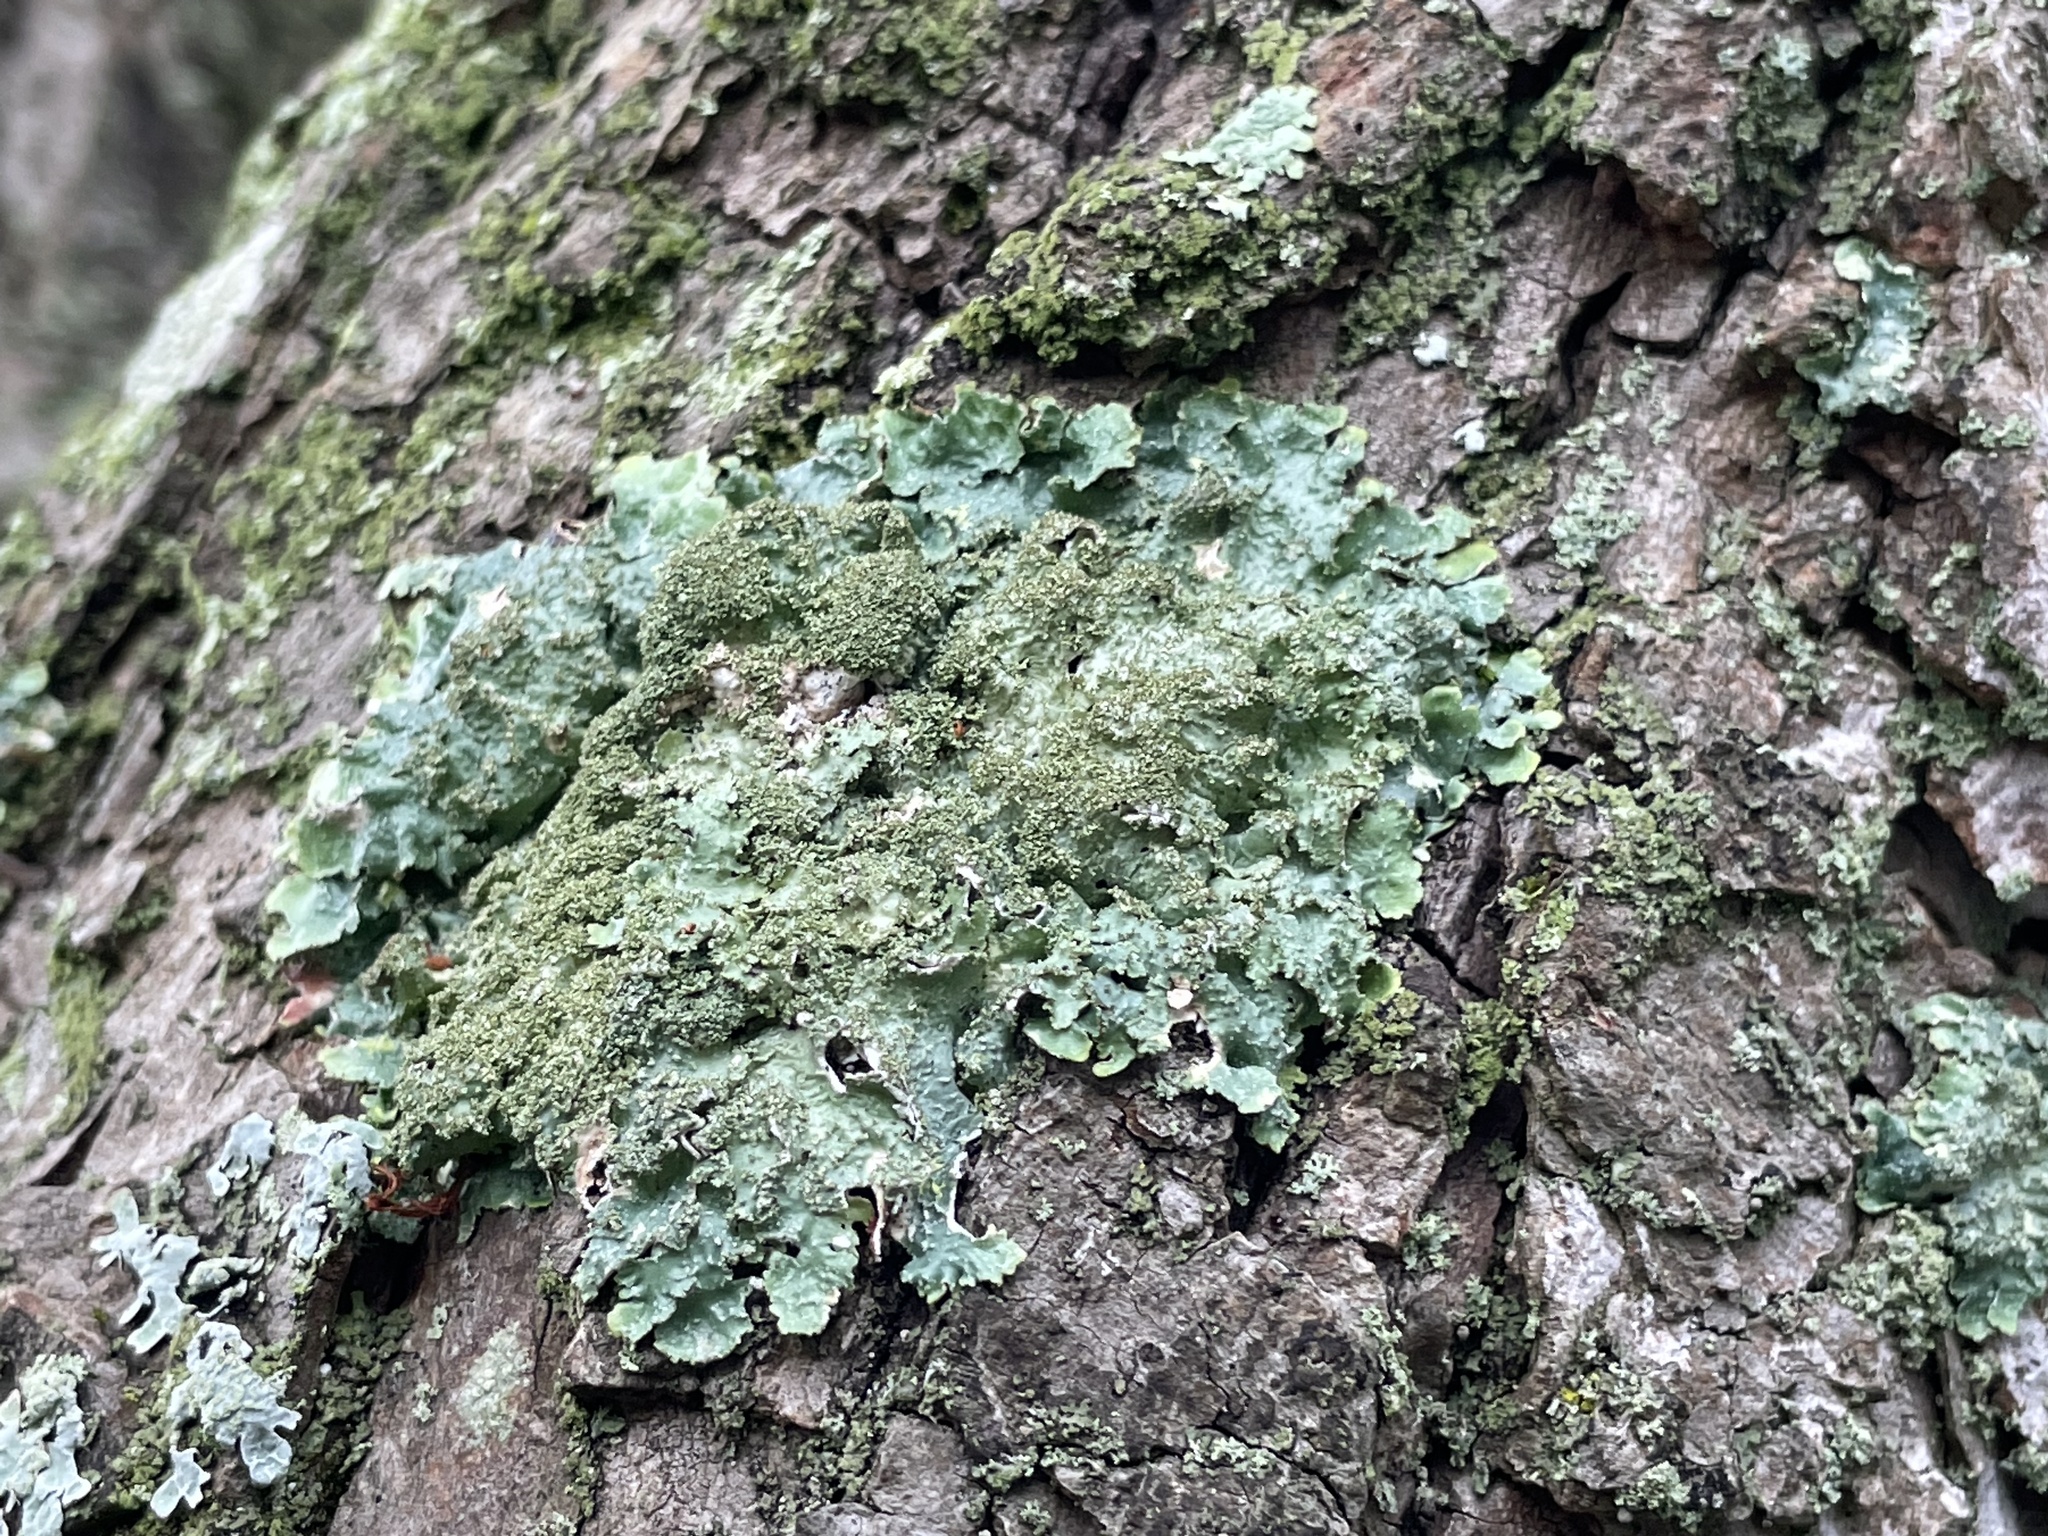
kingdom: Fungi
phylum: Ascomycota
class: Lecanoromycetes
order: Lecanorales
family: Parmeliaceae
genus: Punctelia
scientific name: Punctelia rudecta
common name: Rough speckled shield lichen
